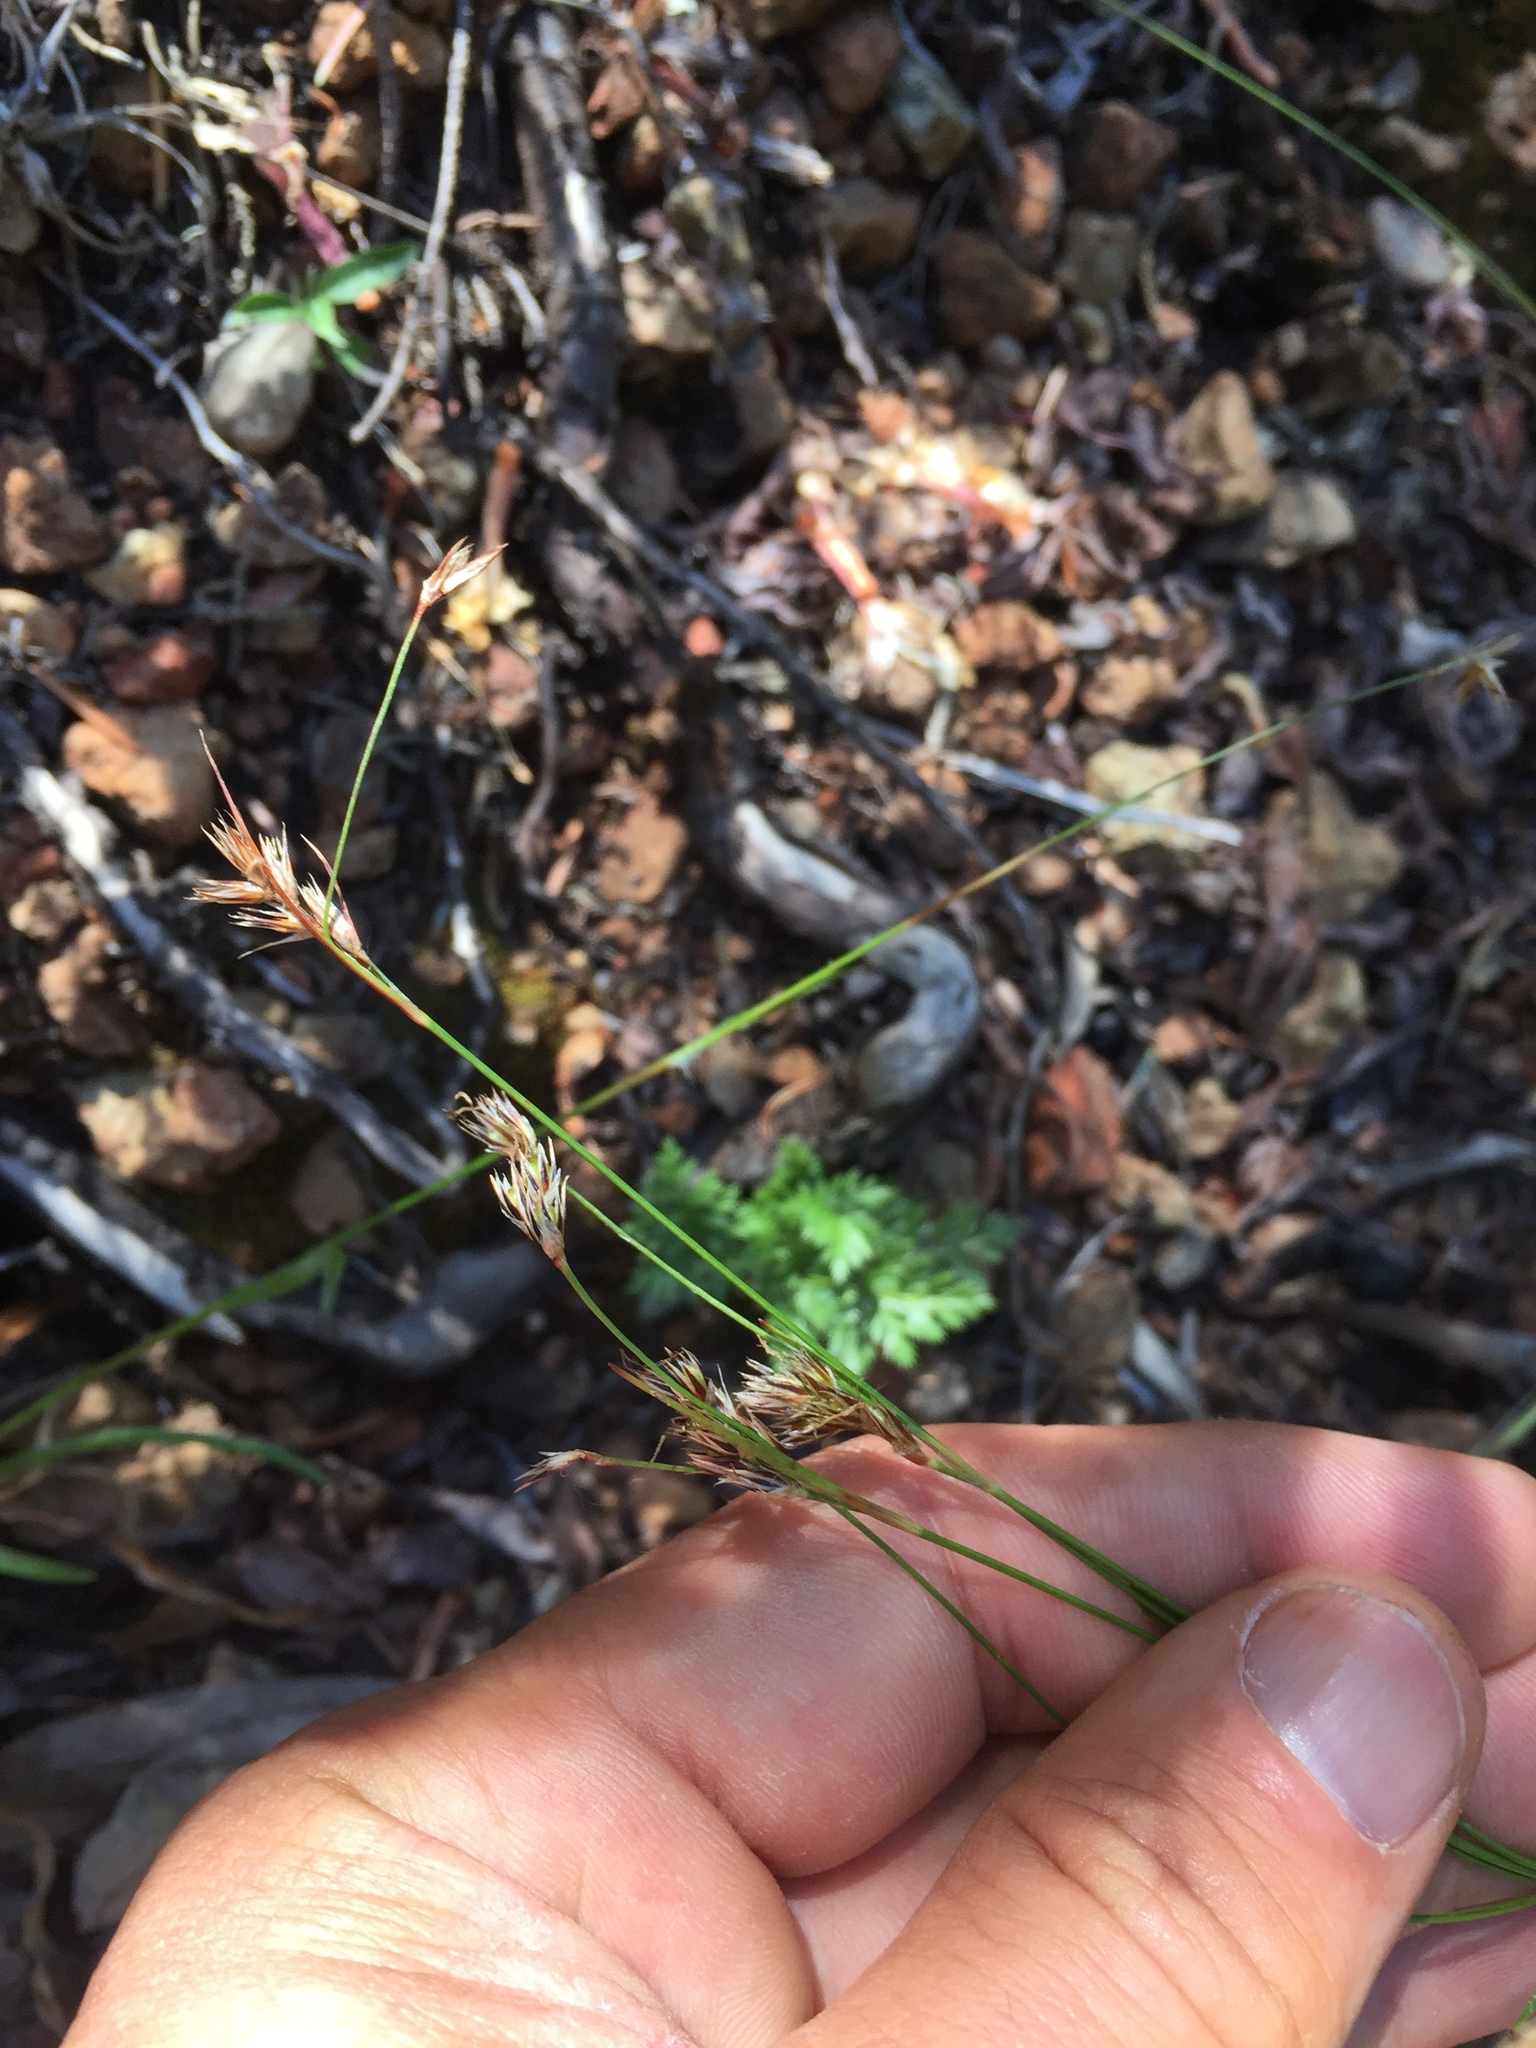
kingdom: Plantae
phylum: Tracheophyta
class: Liliopsida
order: Poales
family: Juncaceae
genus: Luzula
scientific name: Luzula parviflora
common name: Millet woodrush
